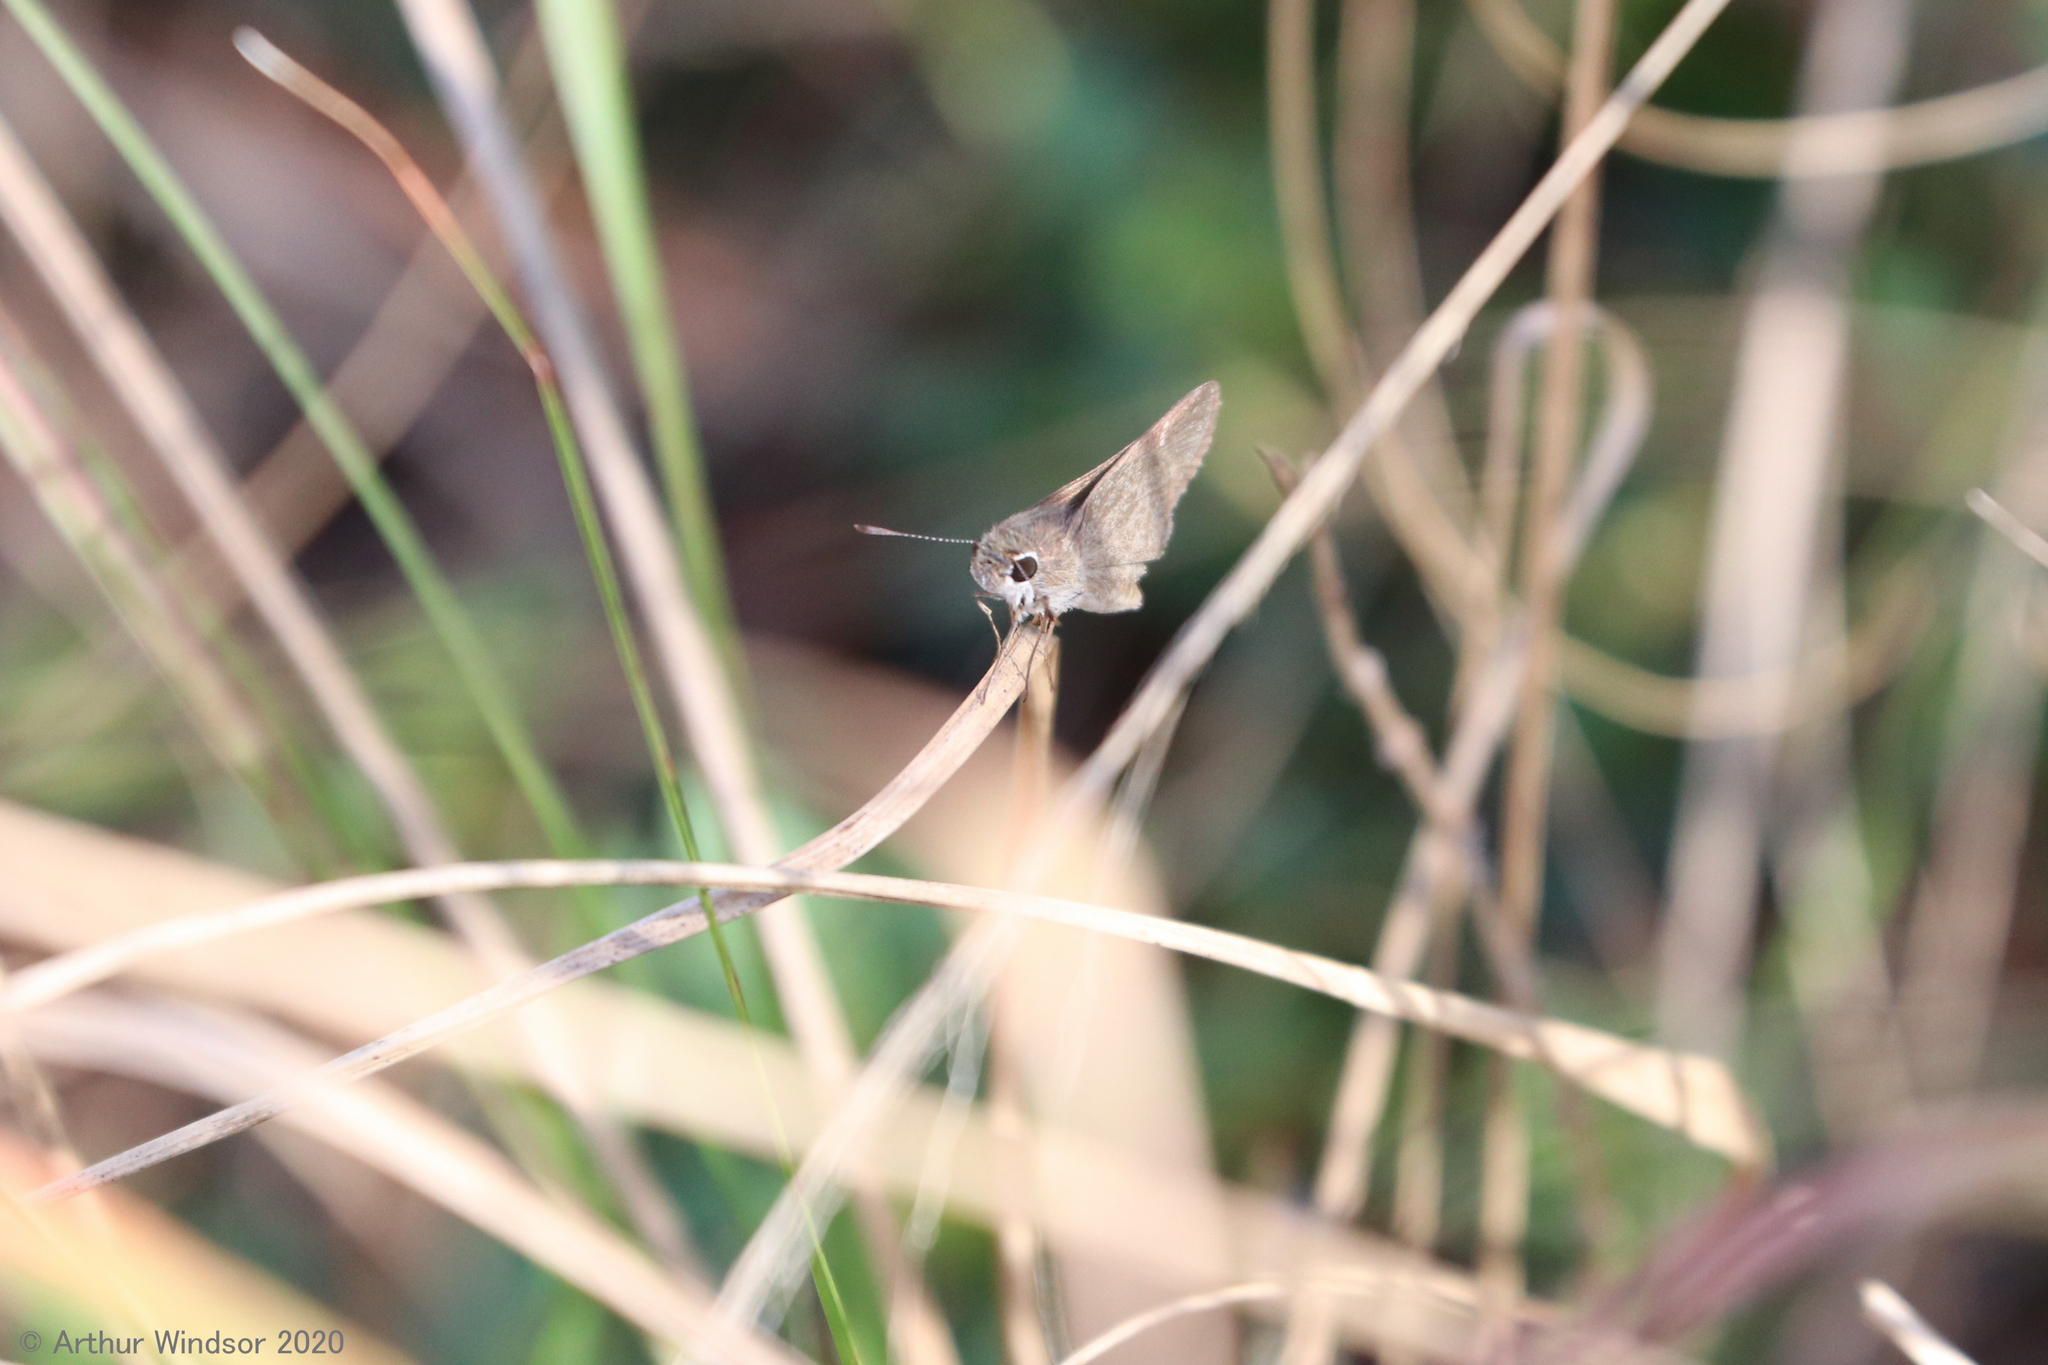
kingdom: Animalia
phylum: Arthropoda
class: Insecta
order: Lepidoptera
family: Hesperiidae
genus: Lerodea
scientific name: Lerodea eufala
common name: Eufala skipper
